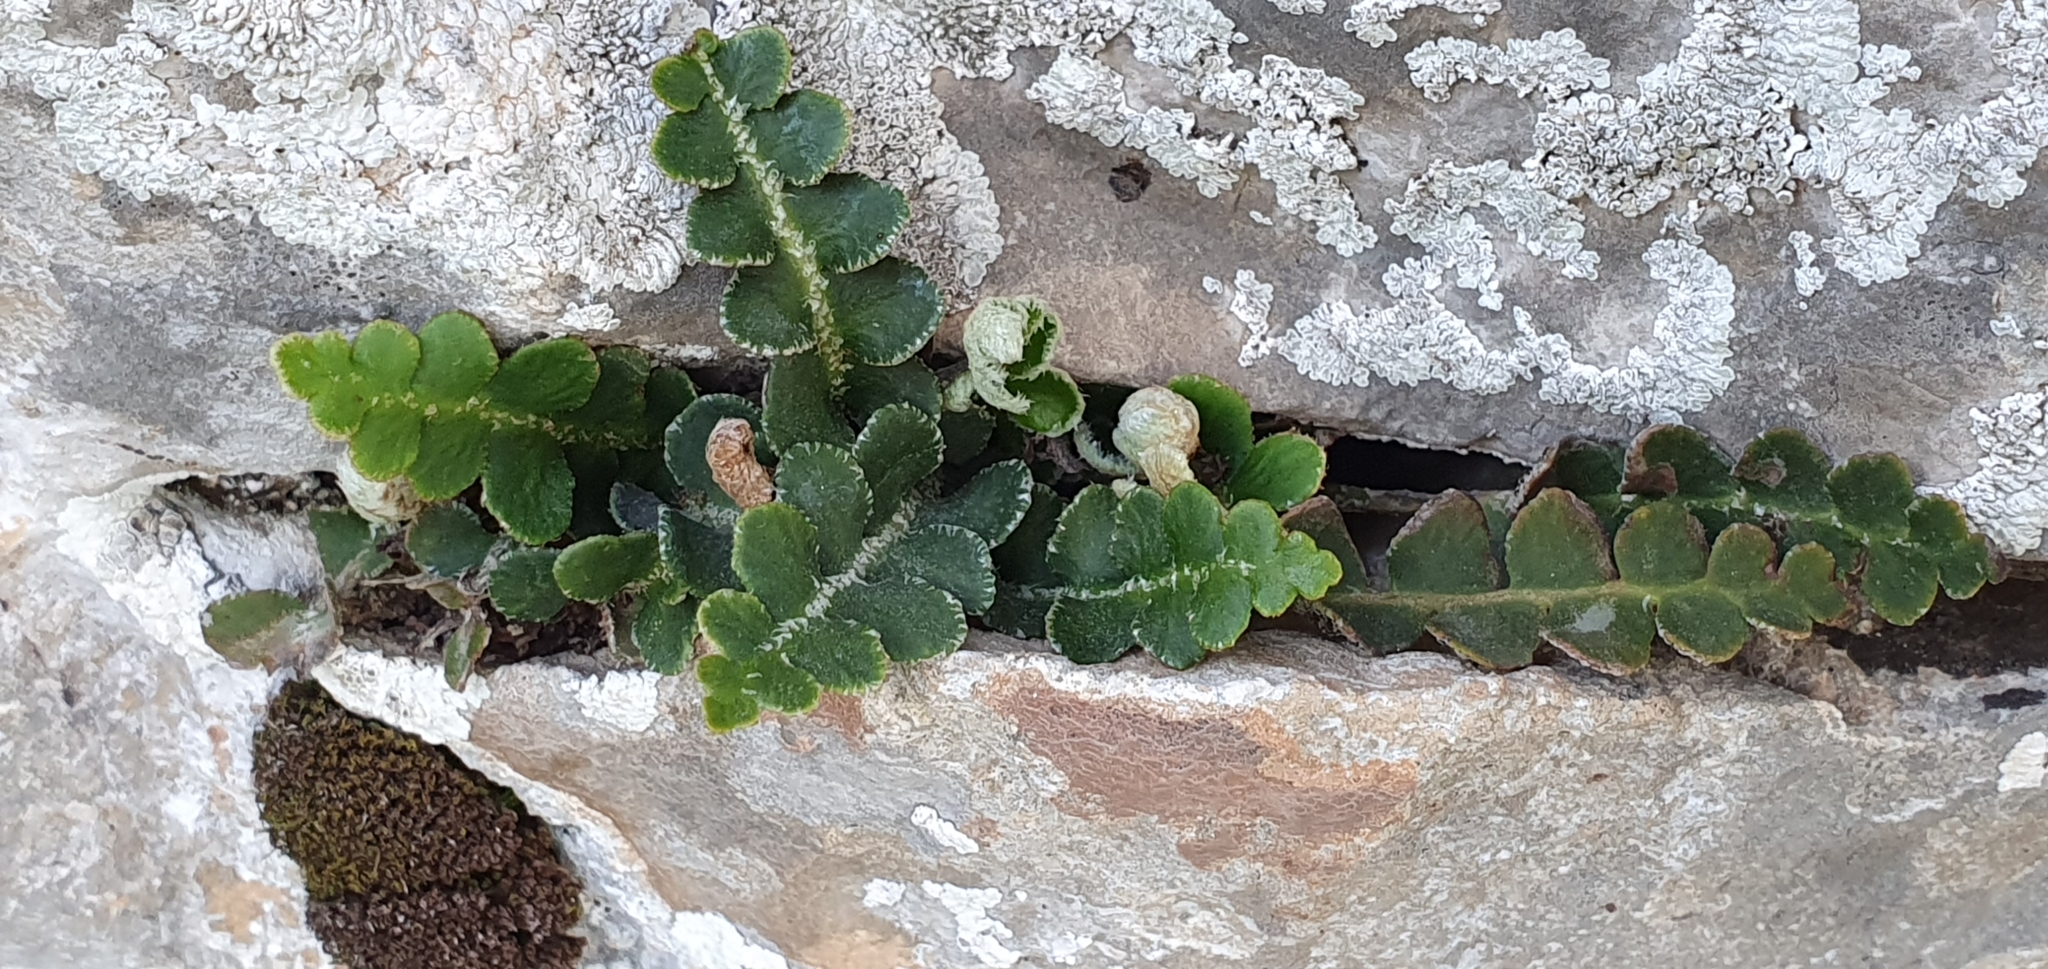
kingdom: Plantae
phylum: Tracheophyta
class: Polypodiopsida
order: Polypodiales
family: Aspleniaceae
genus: Asplenium
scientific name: Asplenium ceterach
